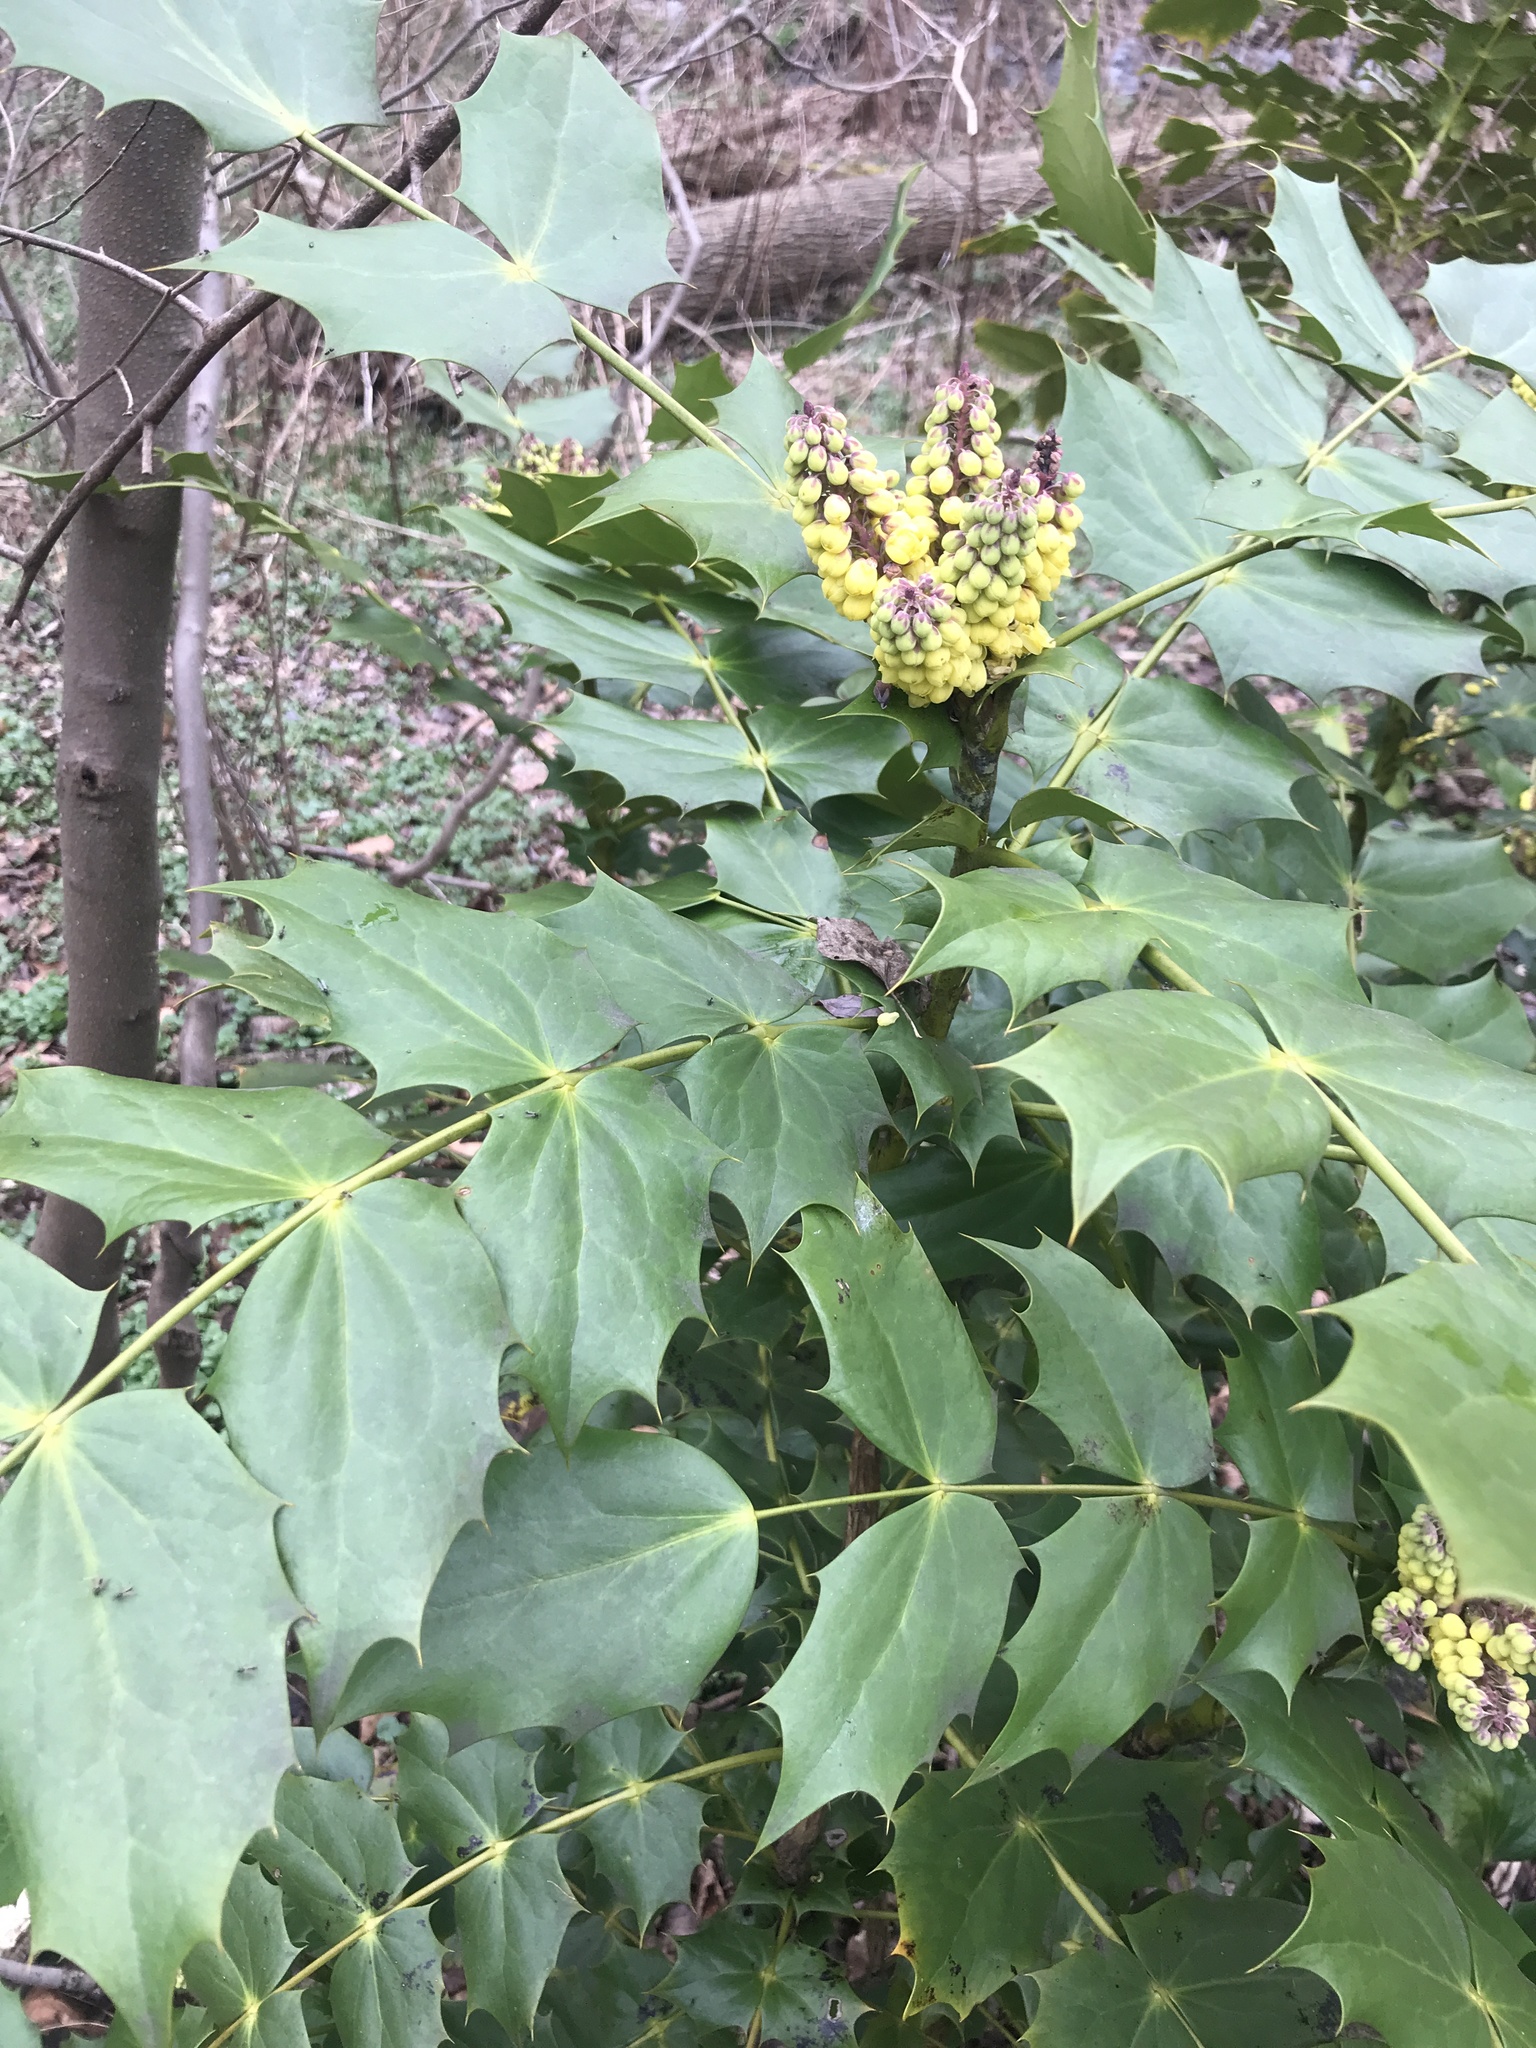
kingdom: Plantae
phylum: Tracheophyta
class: Magnoliopsida
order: Ranunculales
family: Berberidaceae
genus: Mahonia
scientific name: Mahonia bealei
